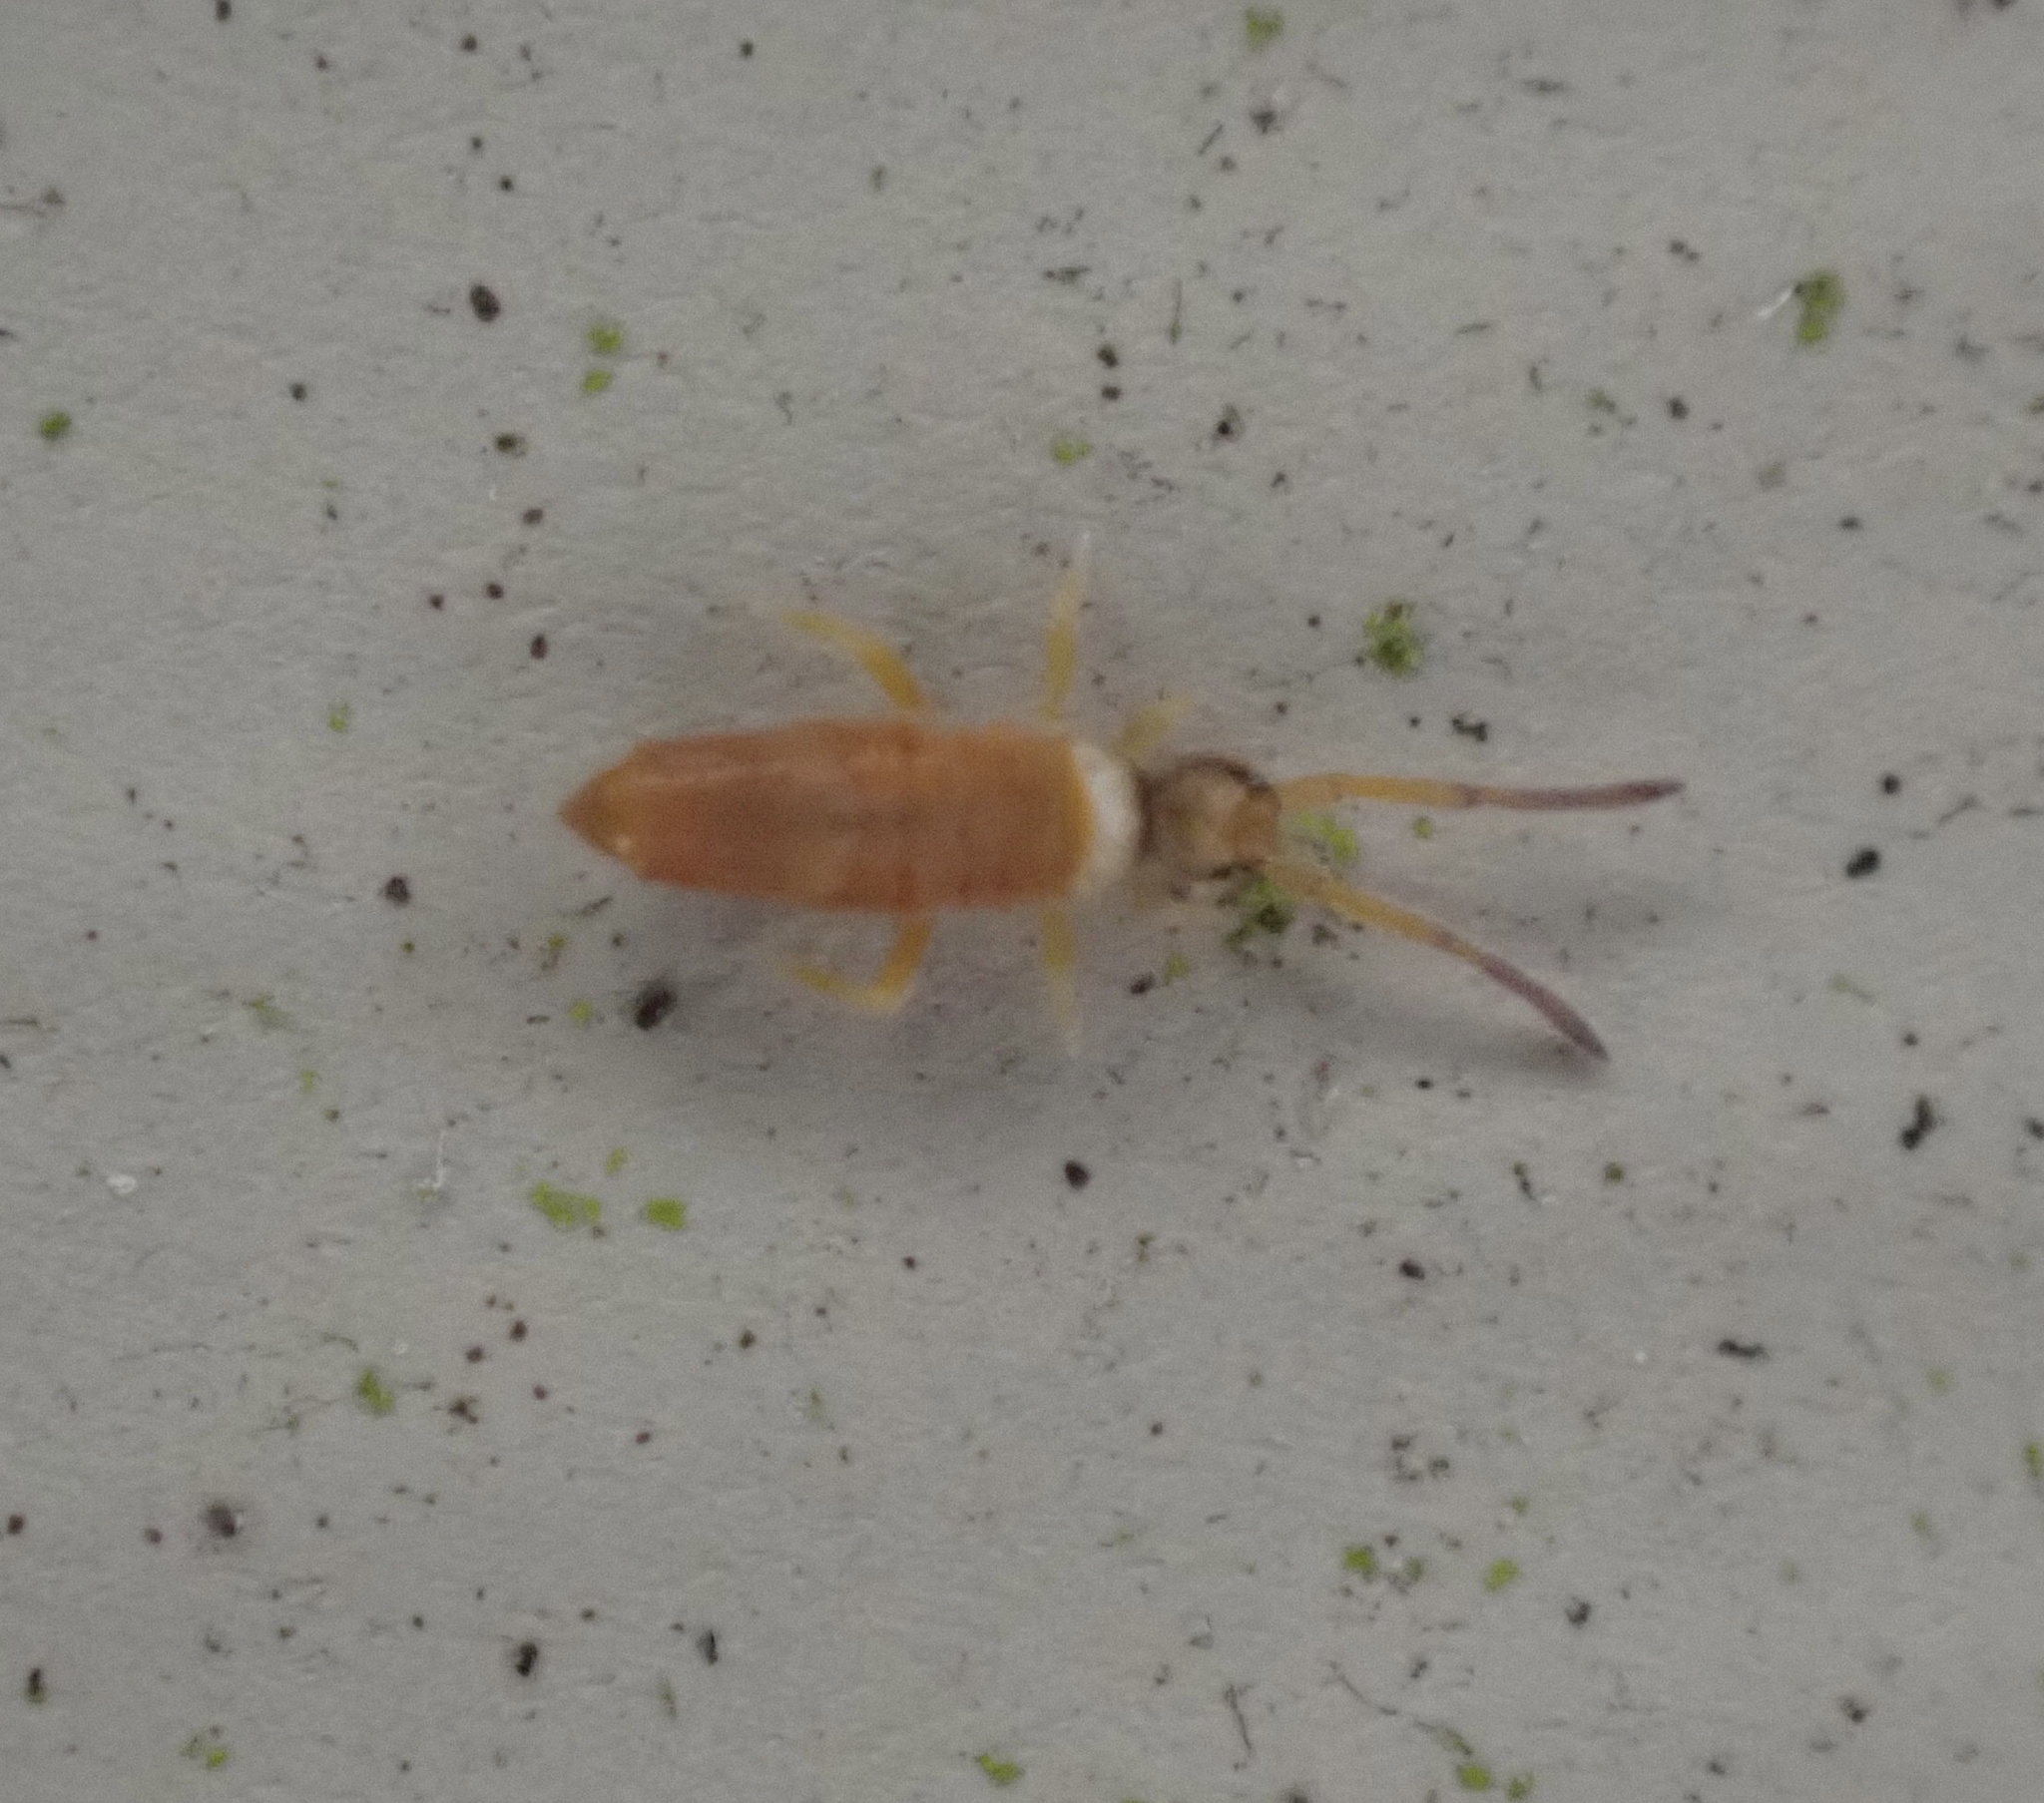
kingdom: Animalia
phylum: Arthropoda
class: Collembola
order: Entomobryomorpha
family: Entomobryidae
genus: Entomobrya
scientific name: Entomobrya atrocincta
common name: Springtail
